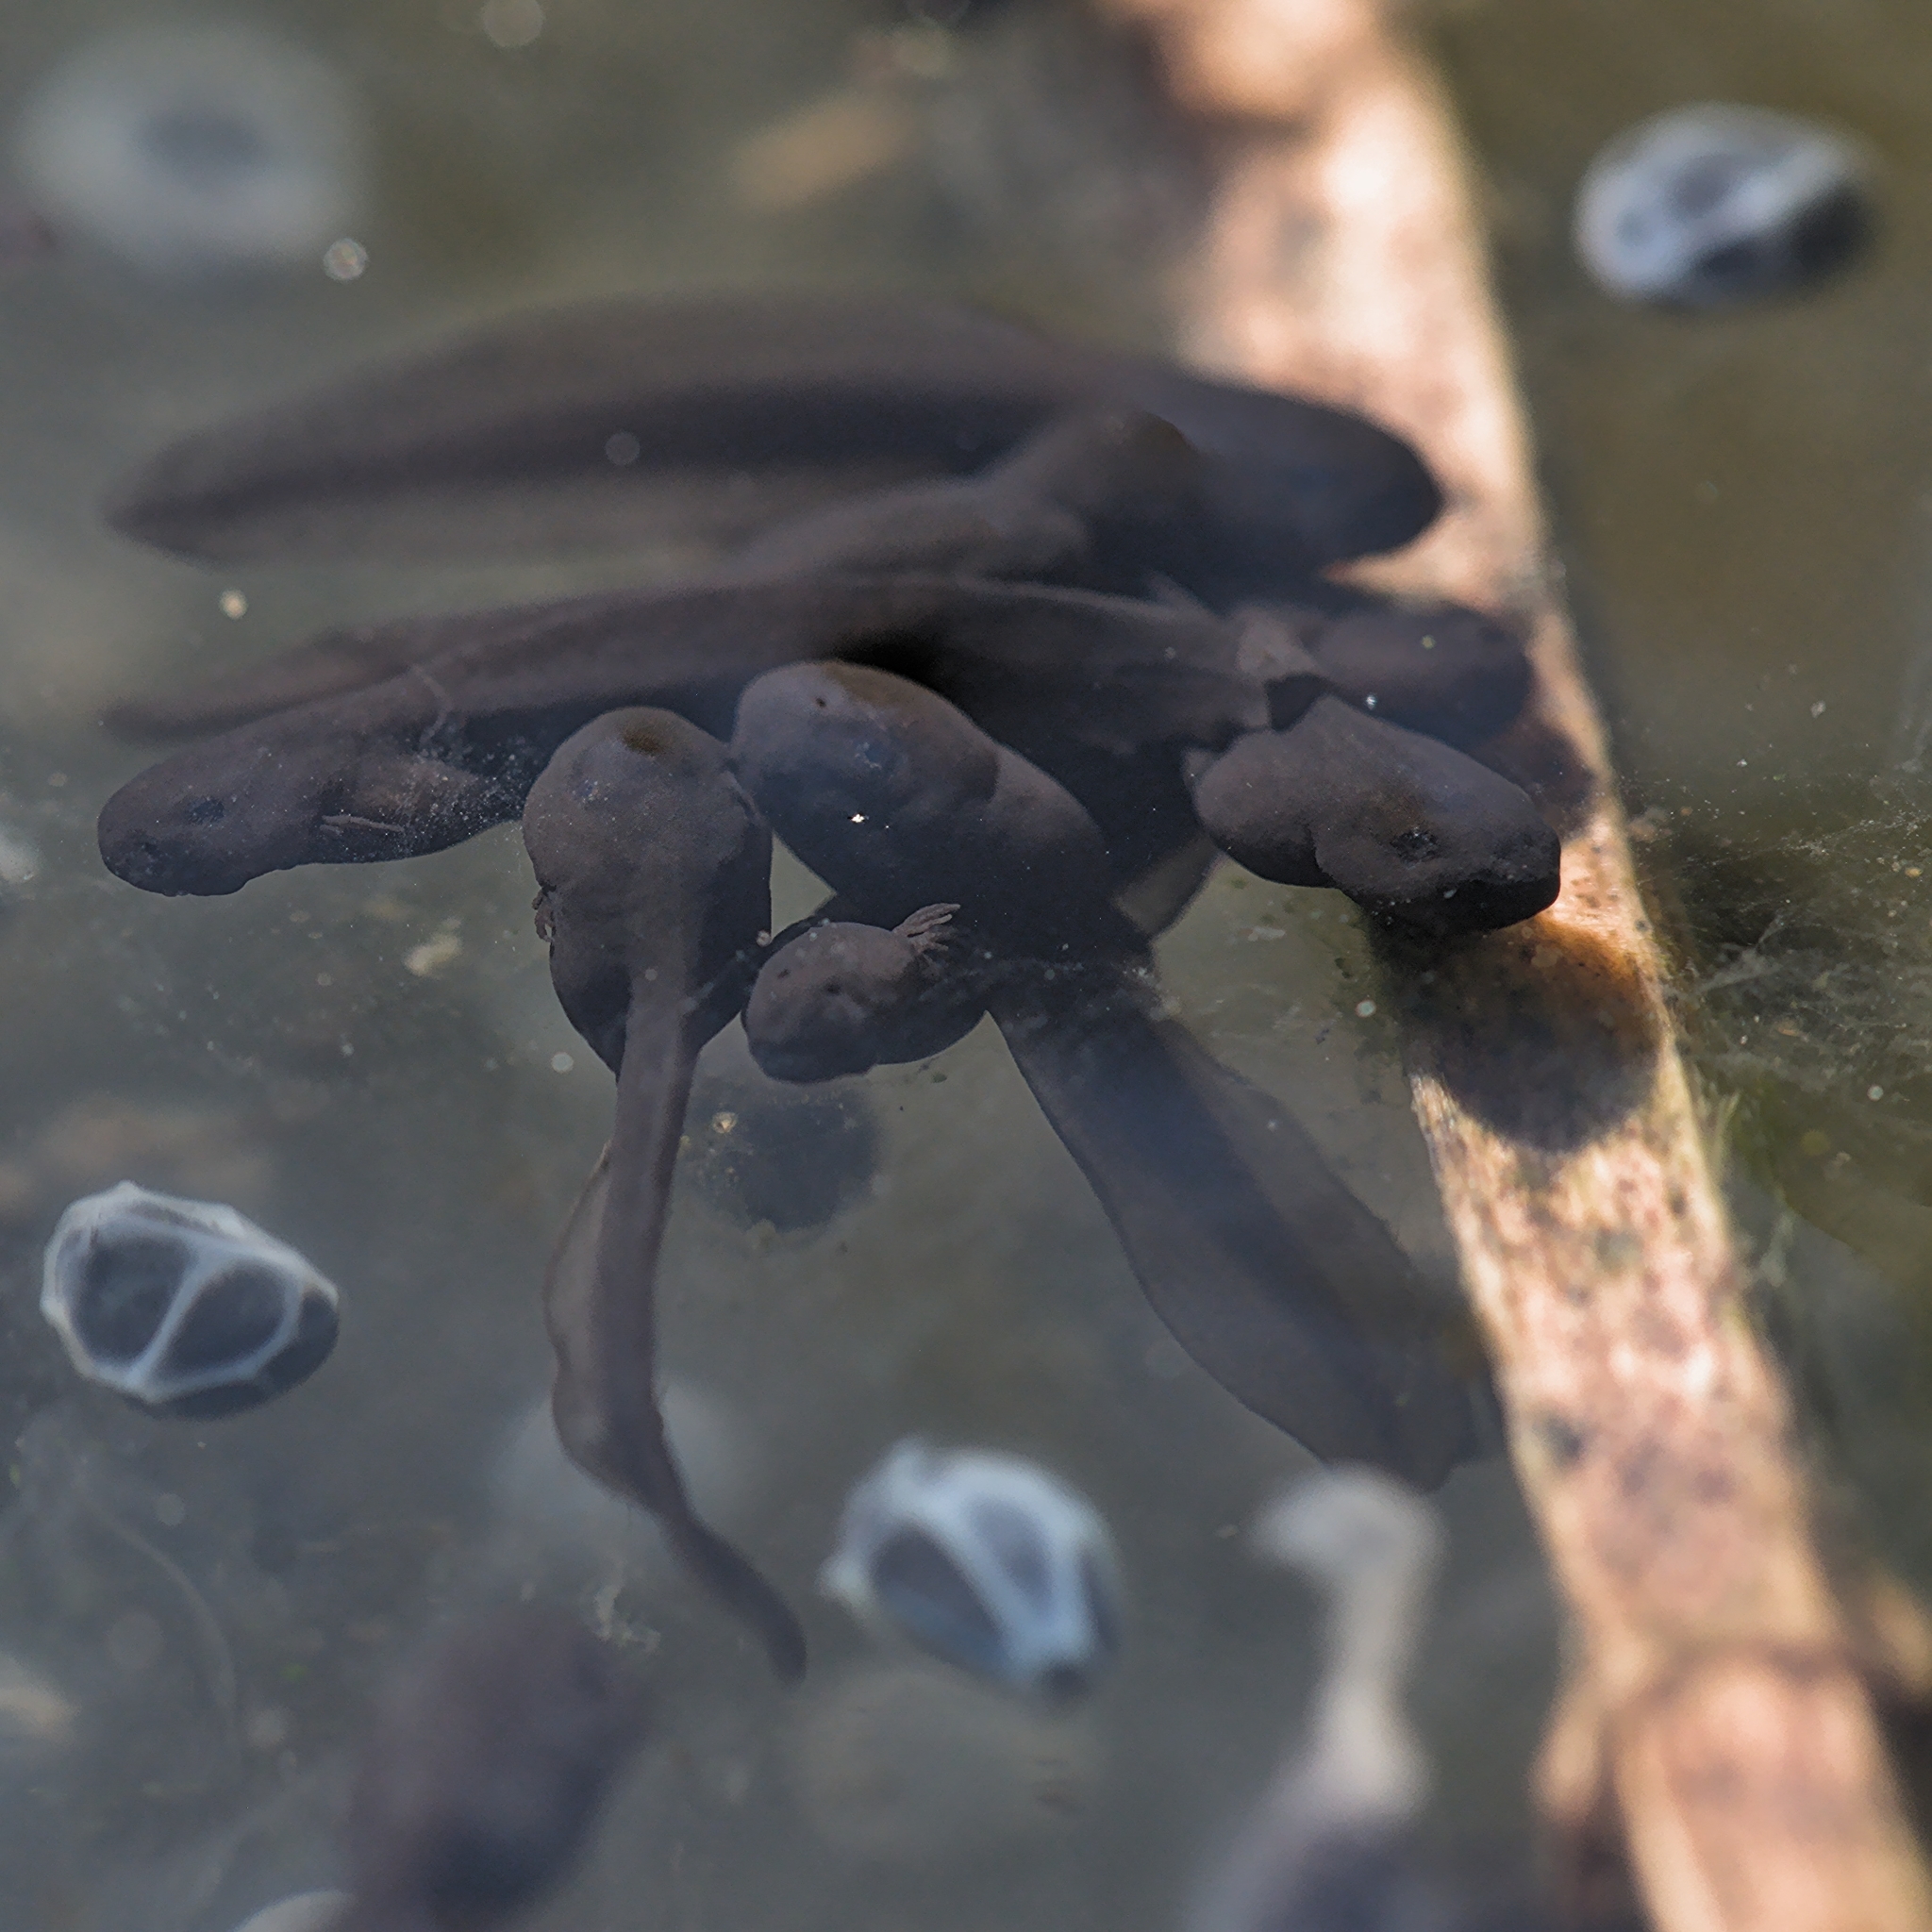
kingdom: Animalia
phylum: Chordata
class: Amphibia
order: Anura
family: Ranidae
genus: Rana
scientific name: Rana temporaria
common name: Common frog
